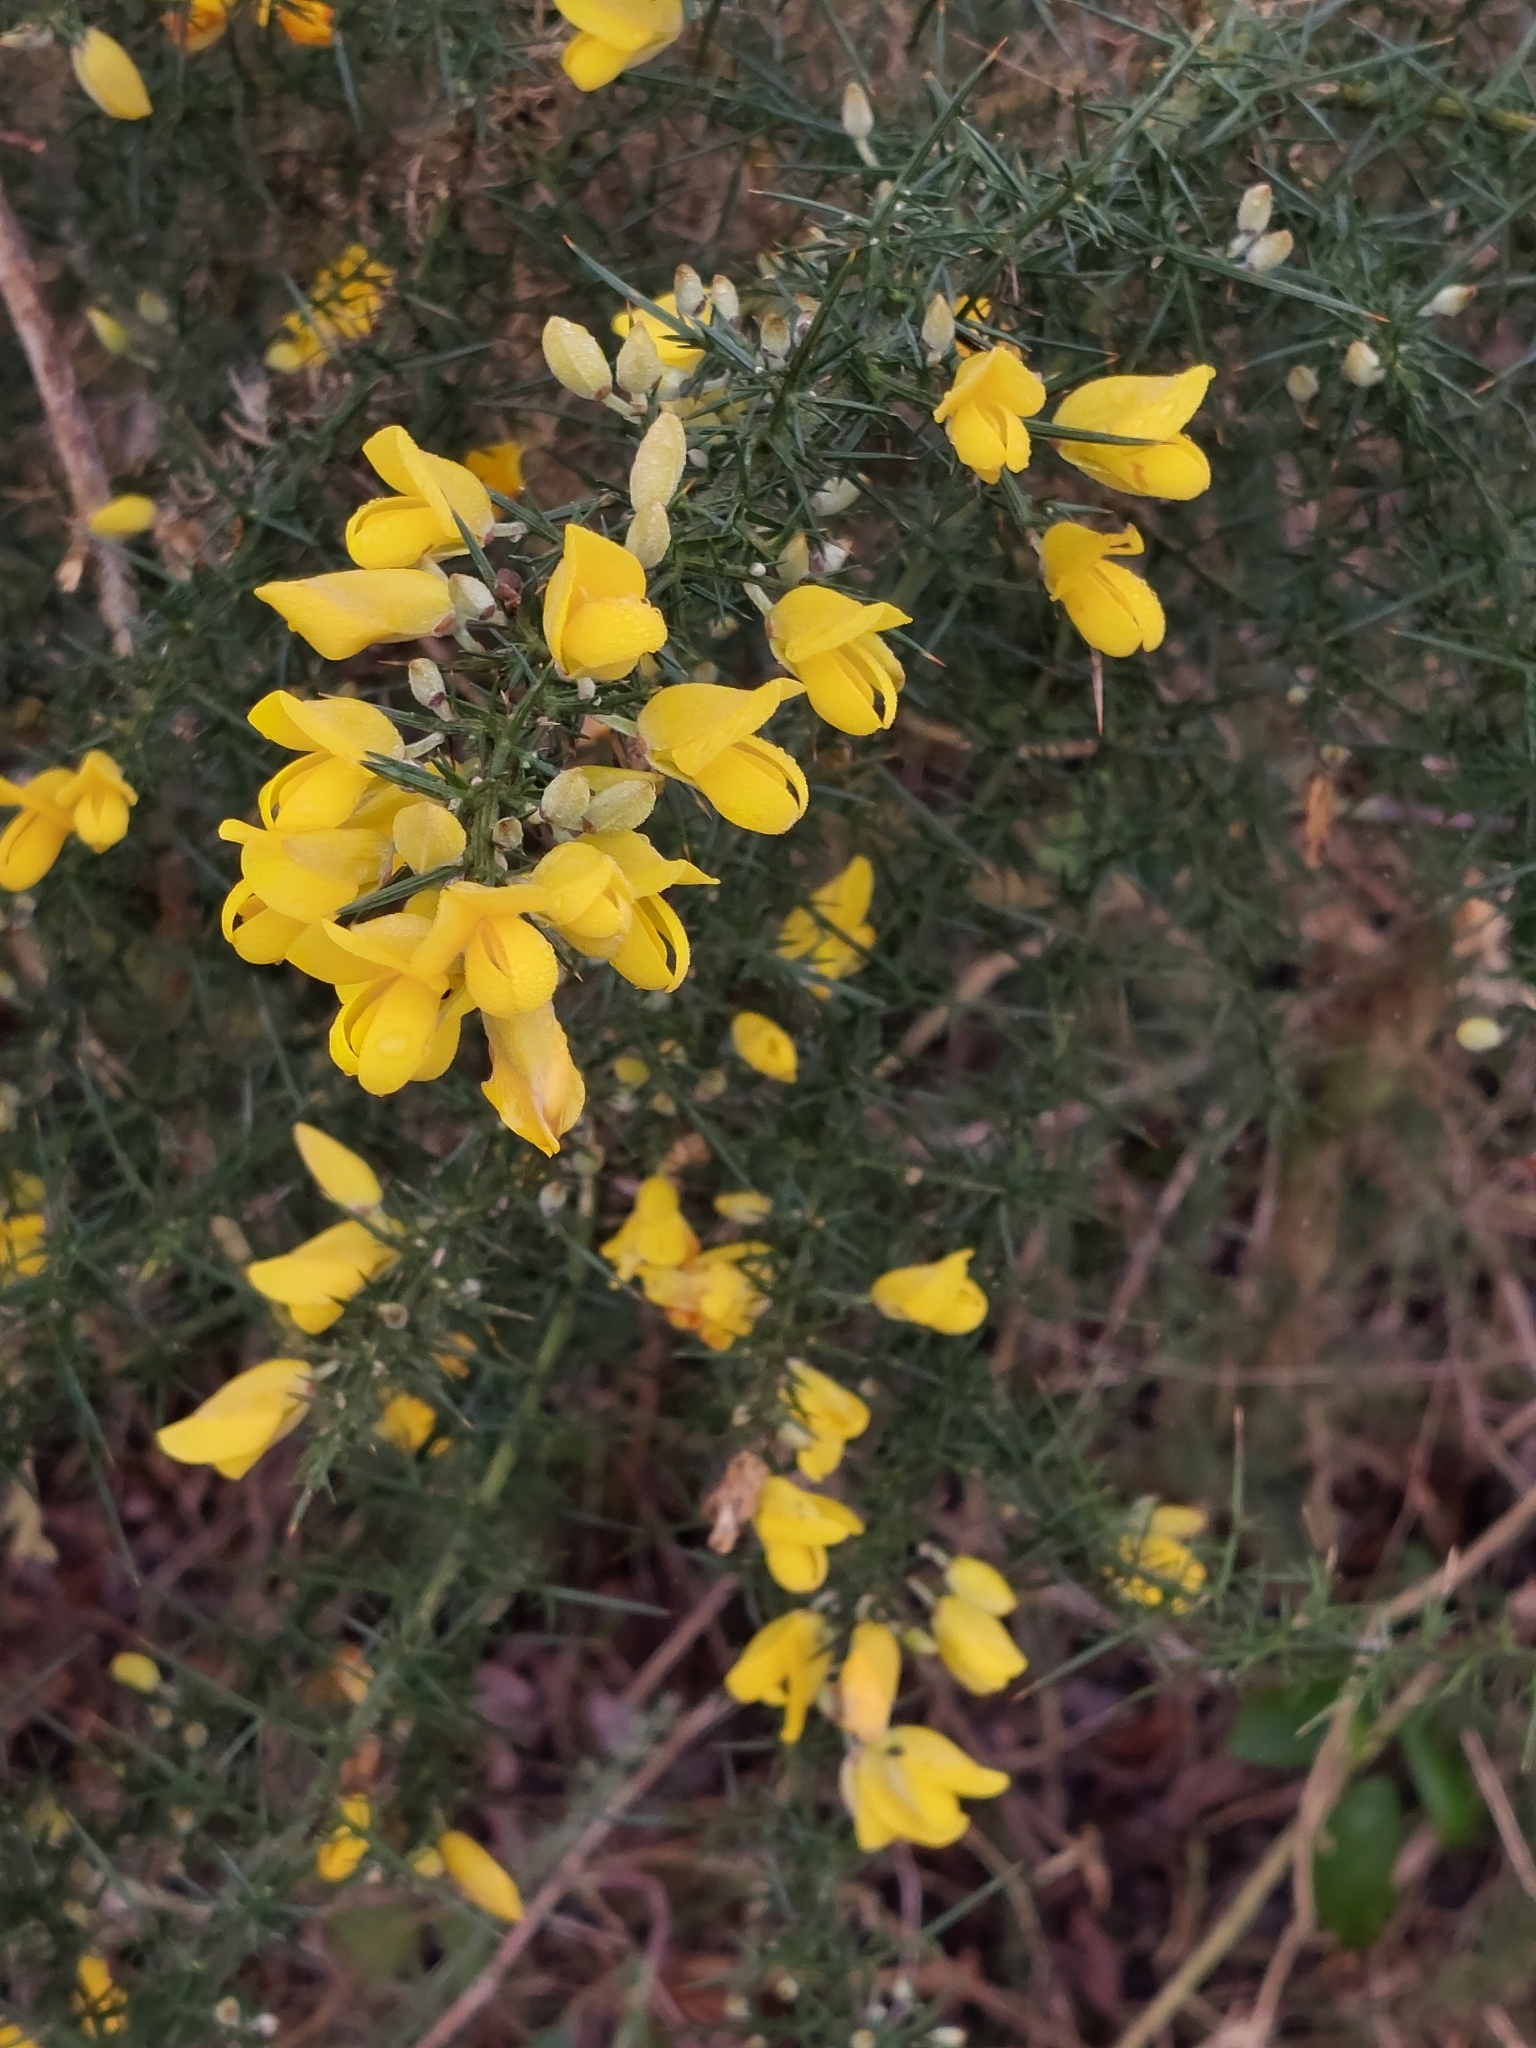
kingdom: Plantae
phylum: Tracheophyta
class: Magnoliopsida
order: Fabales
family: Fabaceae
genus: Ulex
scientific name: Ulex europaeus
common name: Common gorse
